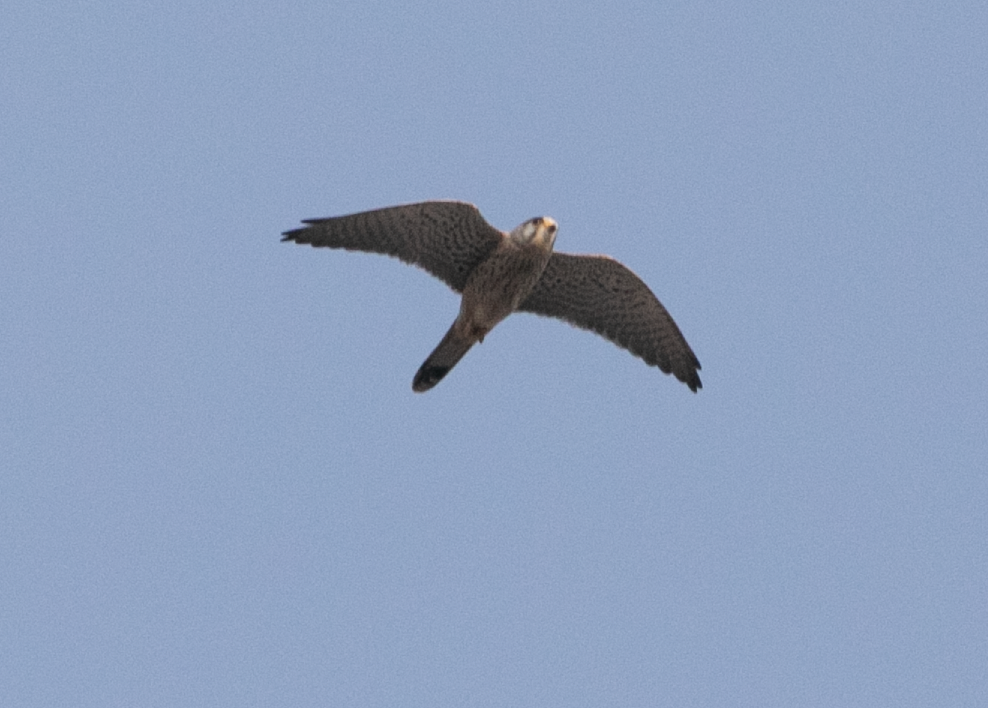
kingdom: Animalia
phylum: Chordata
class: Aves
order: Falconiformes
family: Falconidae
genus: Falco
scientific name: Falco tinnunculus
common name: Common kestrel
